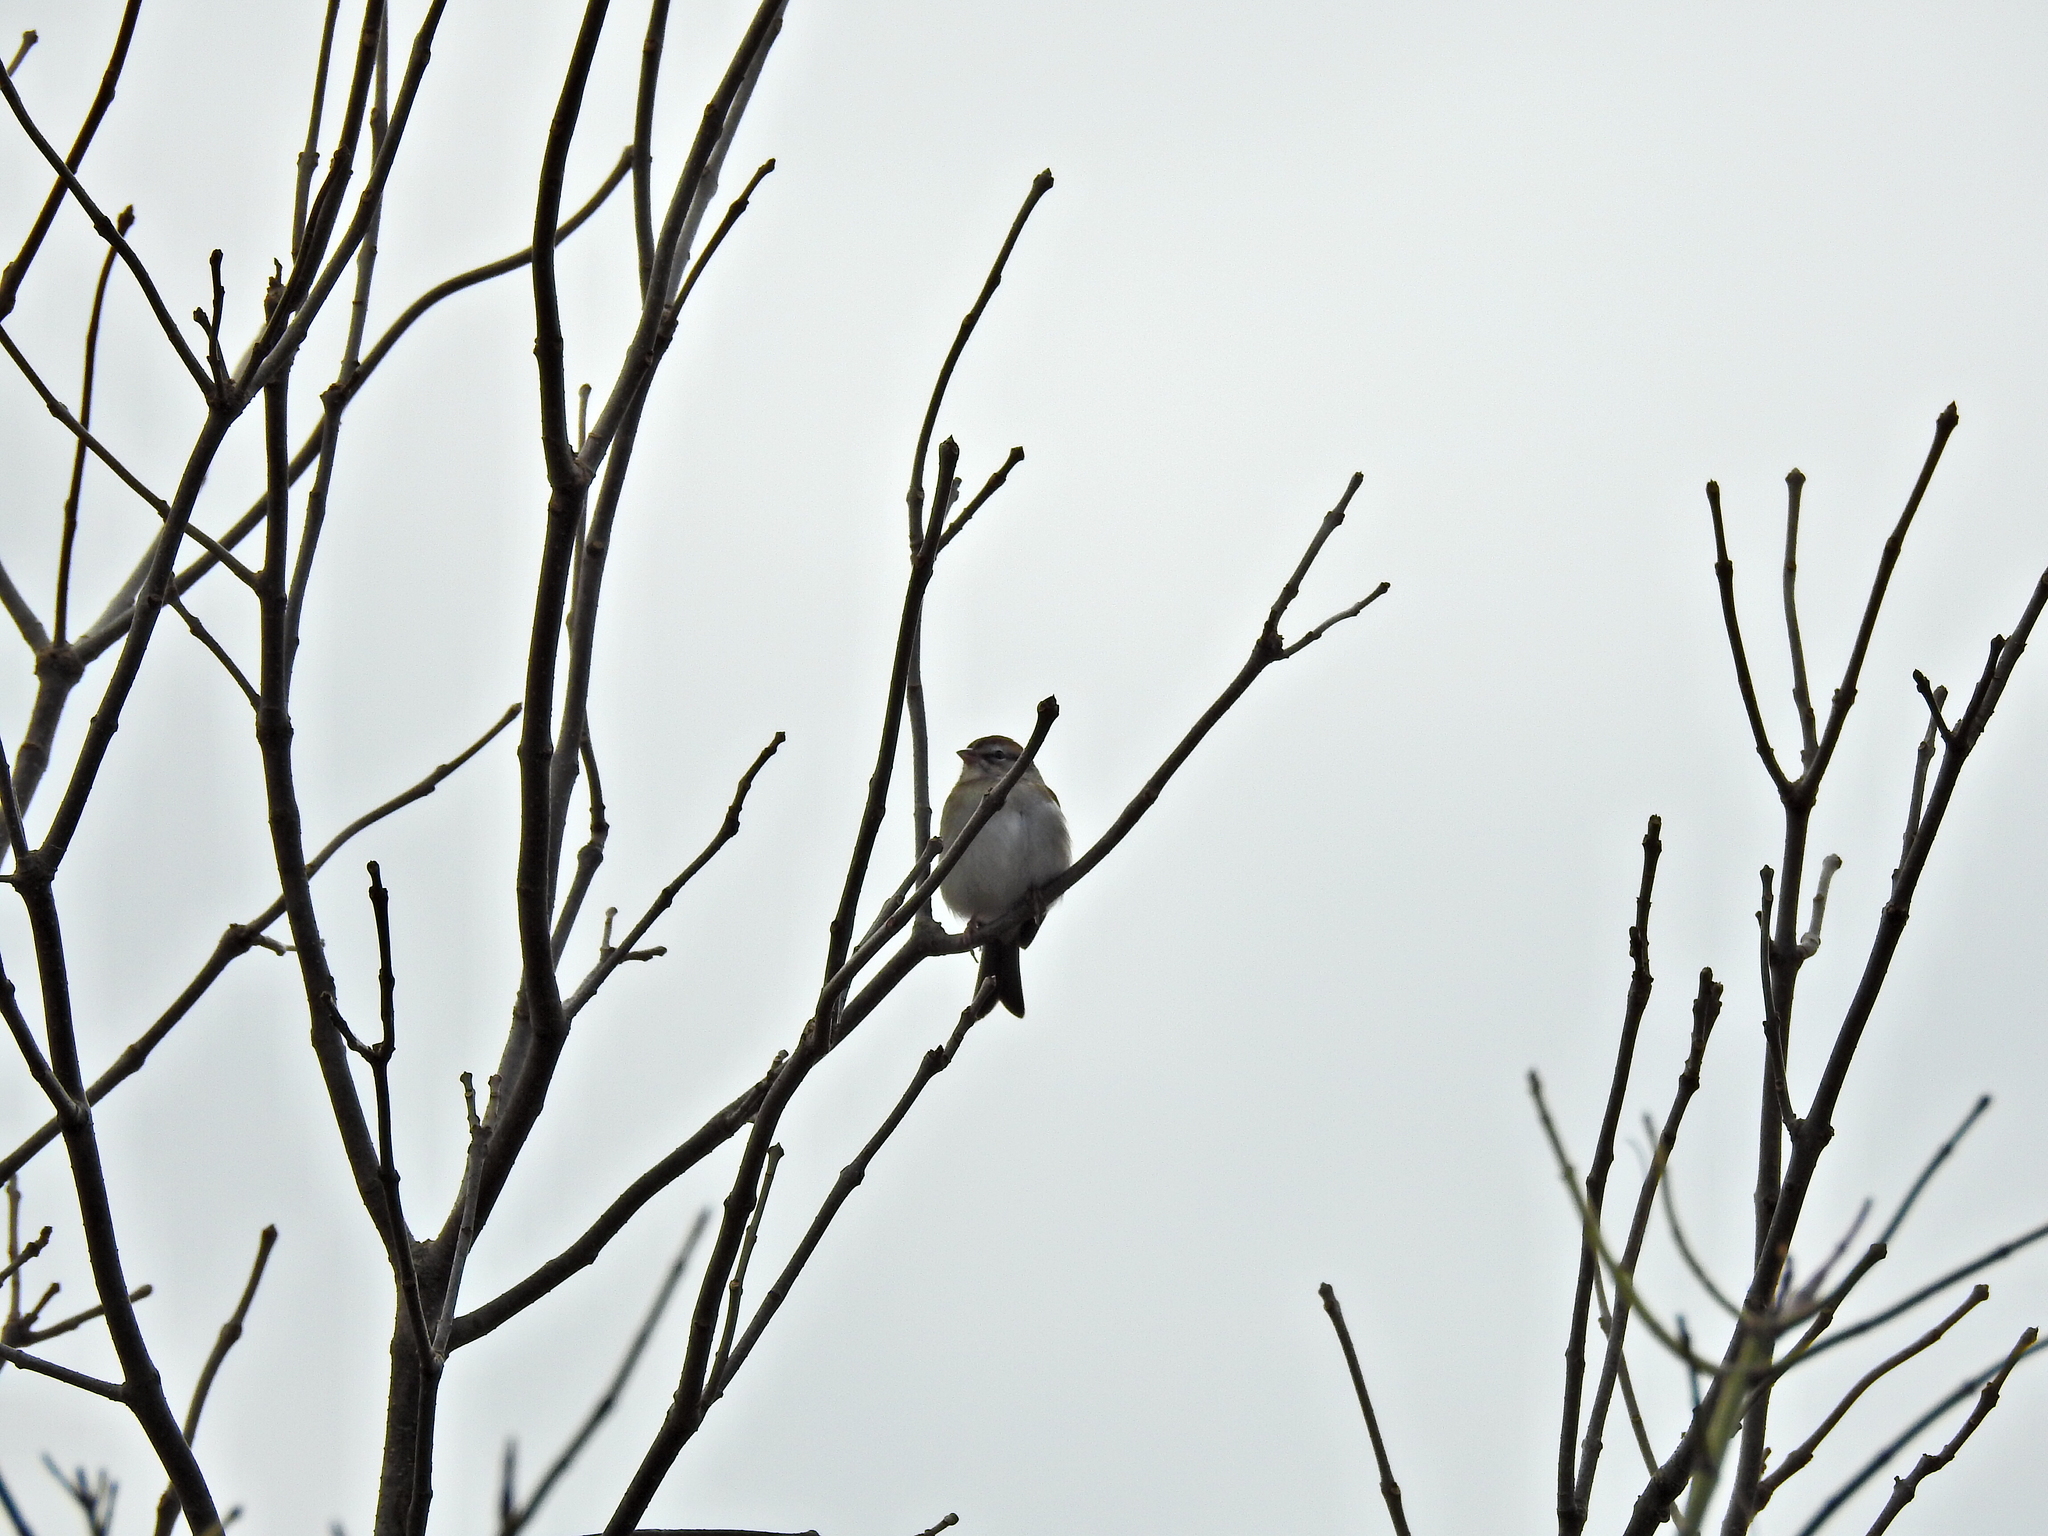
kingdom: Animalia
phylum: Chordata
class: Aves
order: Passeriformes
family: Passerellidae
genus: Spizella
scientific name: Spizella passerina
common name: Chipping sparrow
